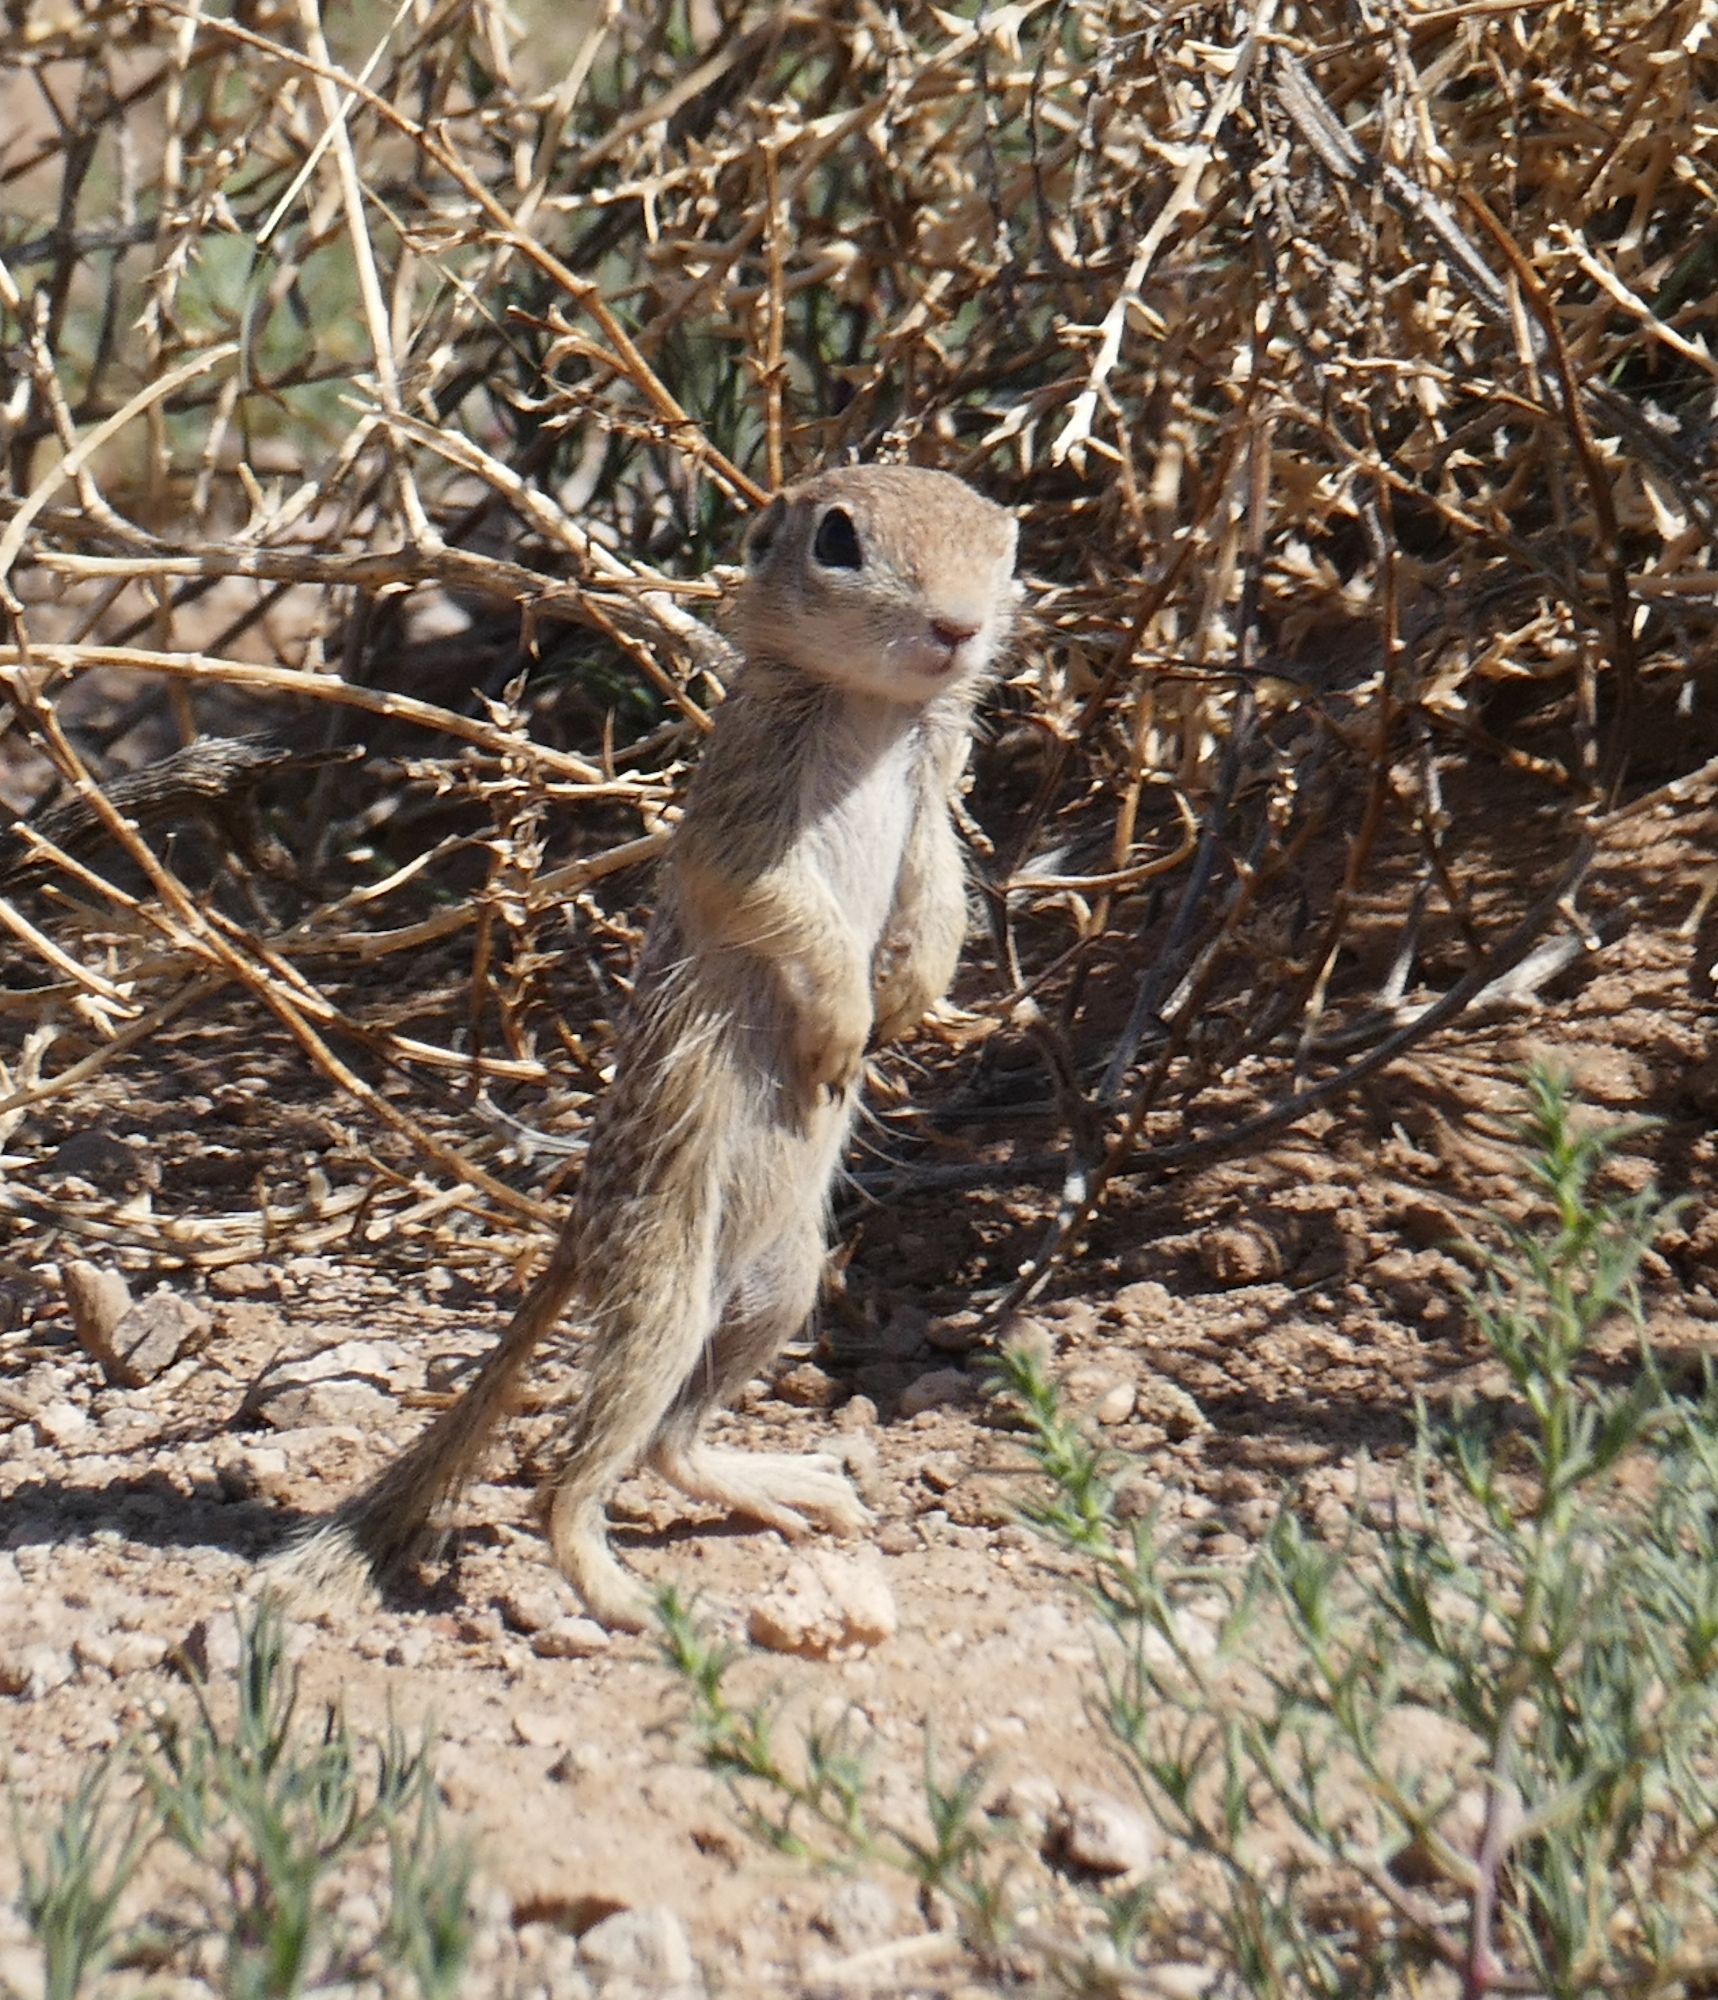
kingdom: Animalia
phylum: Chordata
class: Mammalia
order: Rodentia
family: Sciuridae
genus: Xerospermophilus
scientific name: Xerospermophilus spilosoma
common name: Spotted ground squirrel
